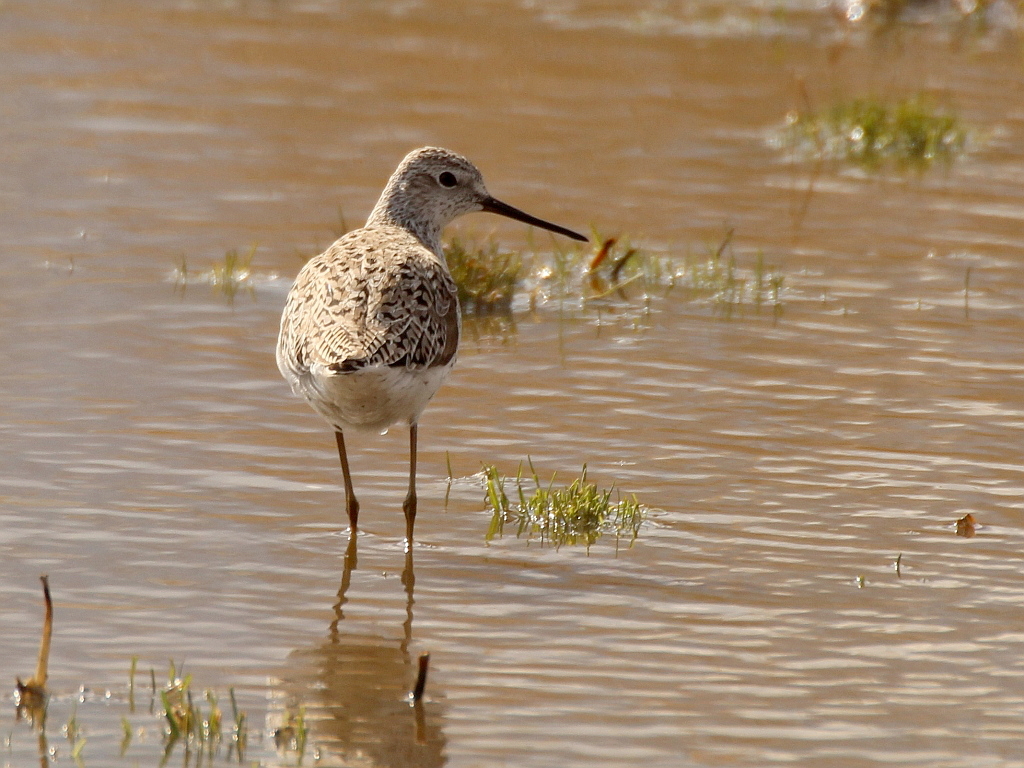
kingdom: Animalia
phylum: Chordata
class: Aves
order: Charadriiformes
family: Scolopacidae
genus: Tringa
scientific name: Tringa stagnatilis
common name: Marsh sandpiper
